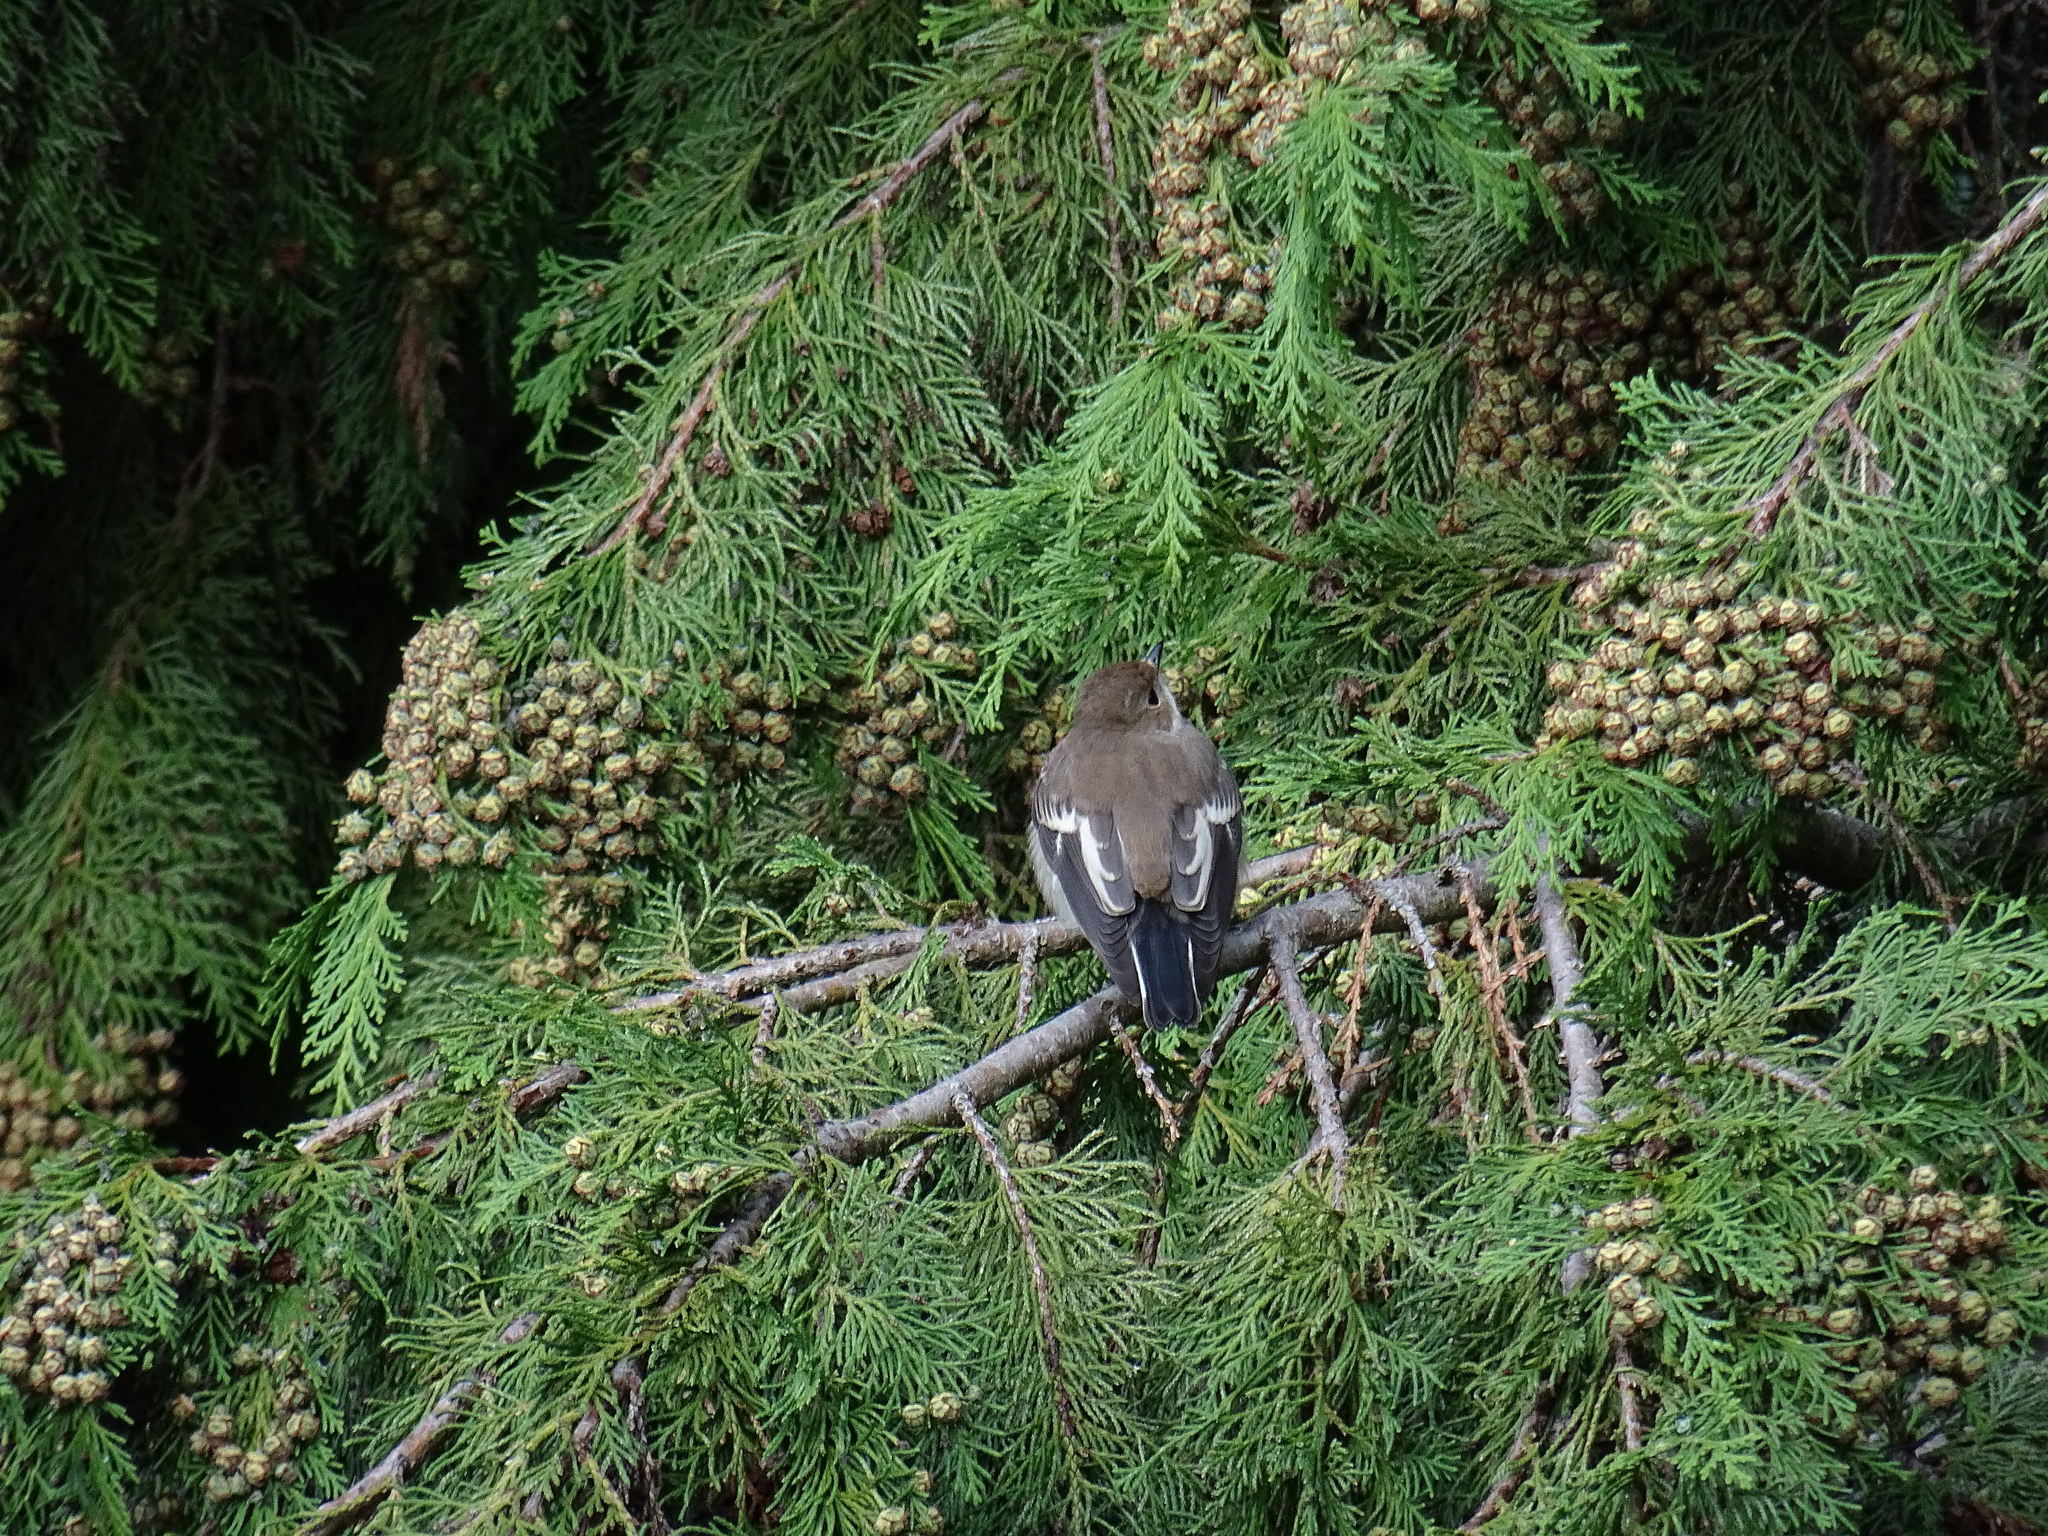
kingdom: Animalia
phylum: Chordata
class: Aves
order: Passeriformes
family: Muscicapidae
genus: Ficedula
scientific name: Ficedula albicollis
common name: Collared flycatcher
